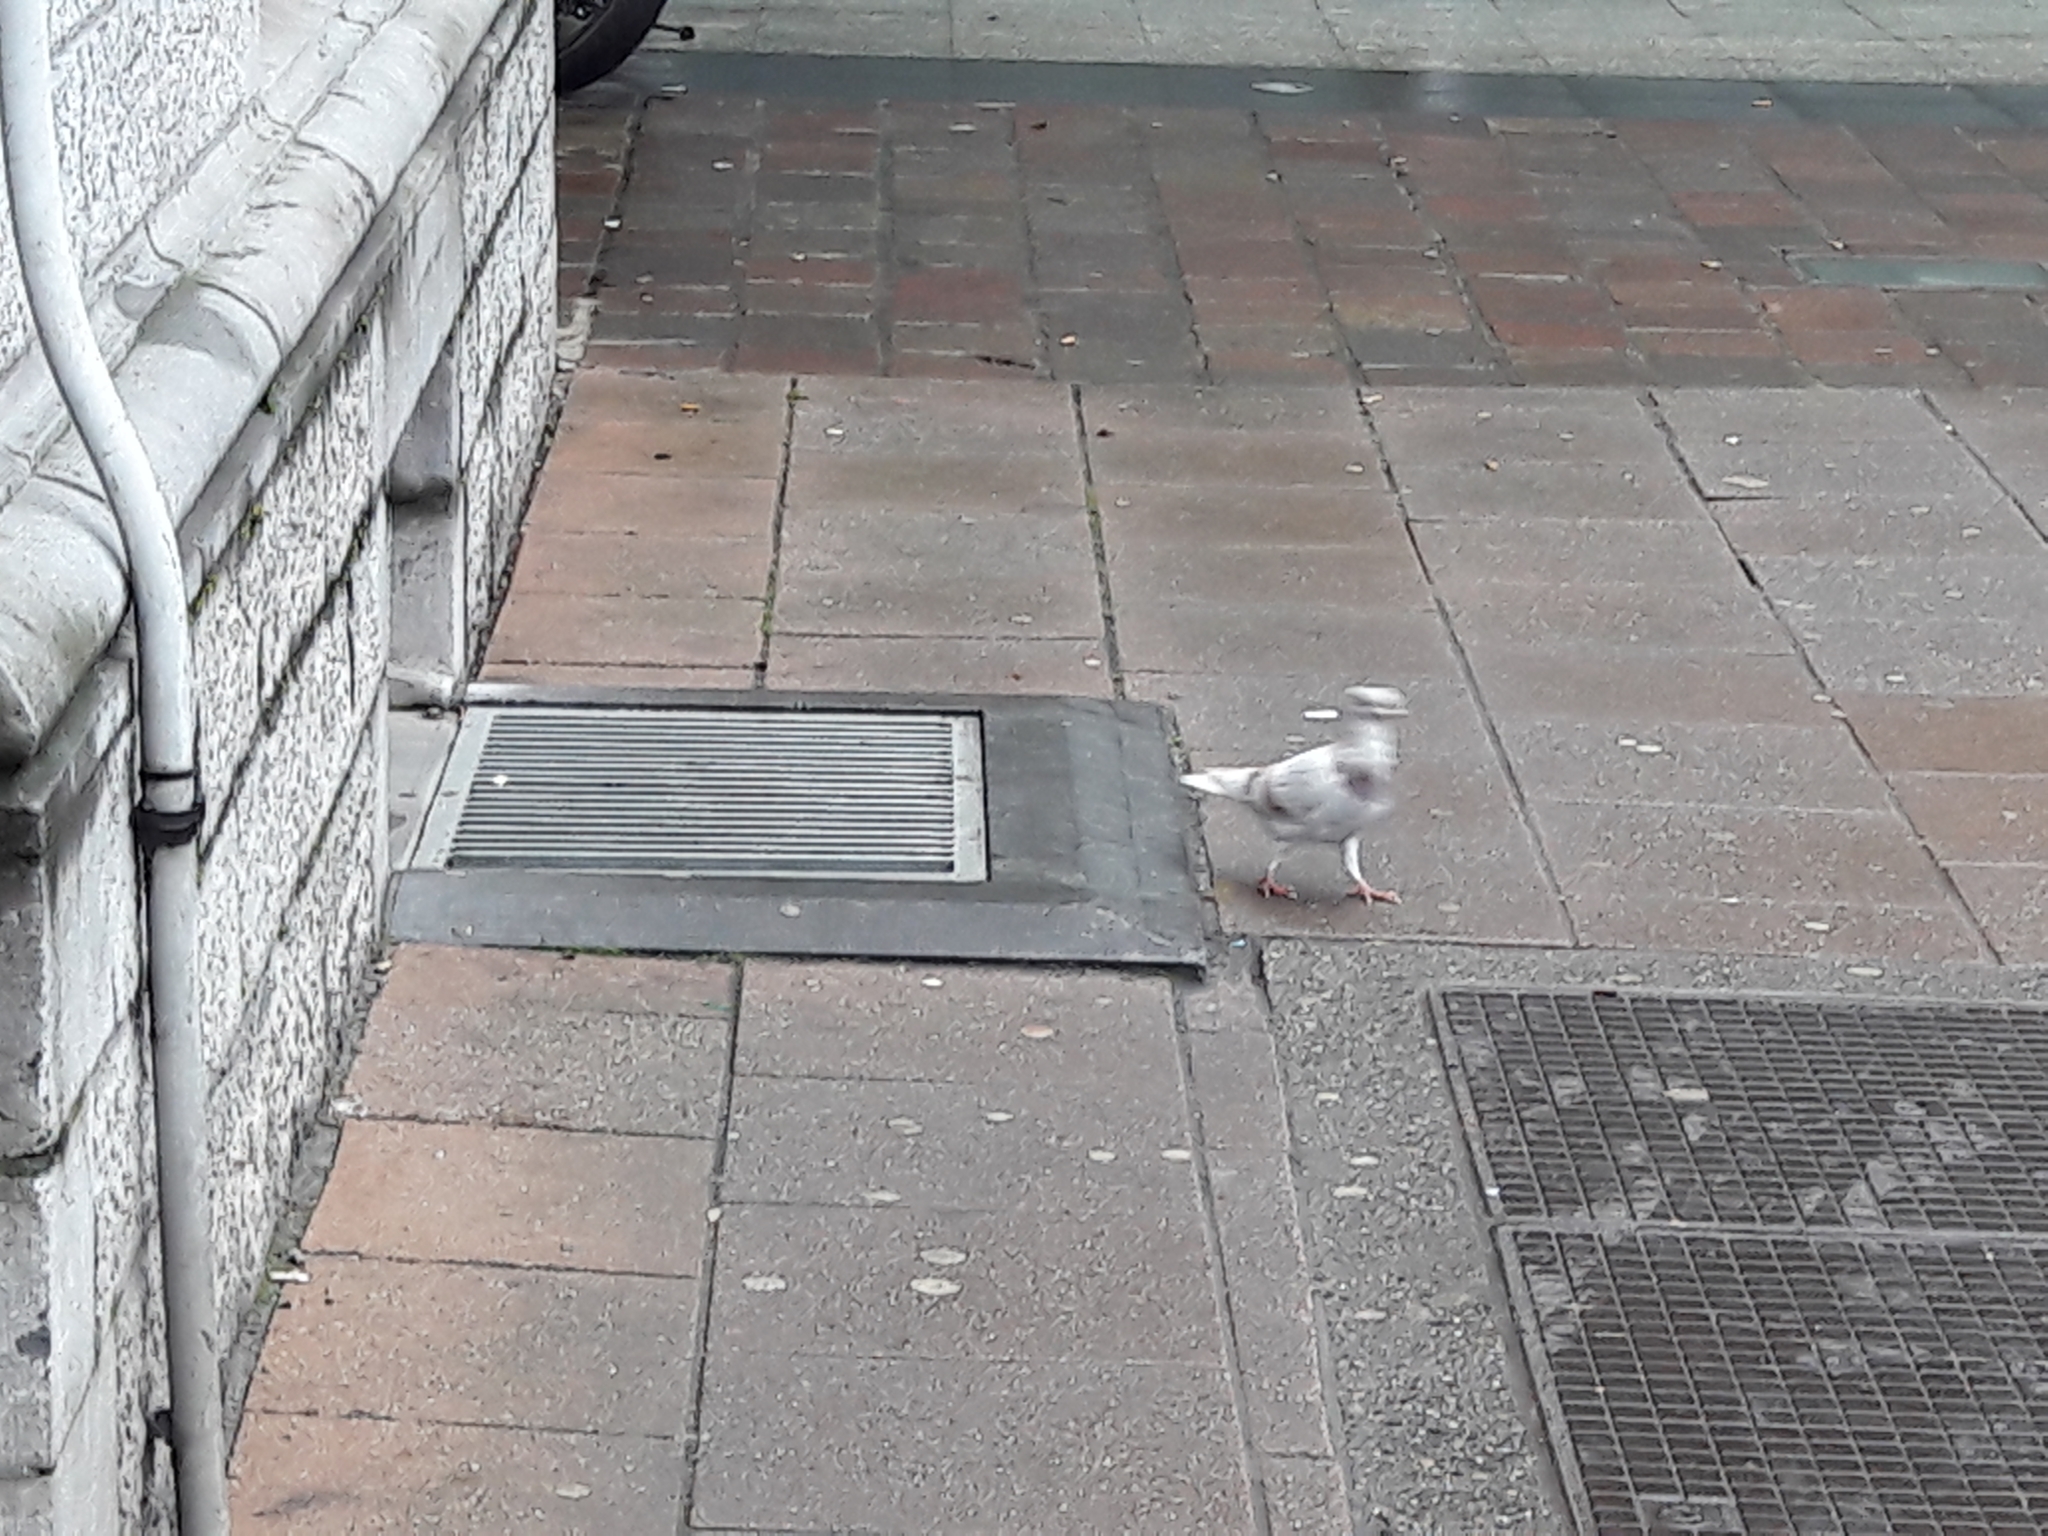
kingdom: Animalia
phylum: Chordata
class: Aves
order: Columbiformes
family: Columbidae
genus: Columba
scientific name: Columba livia
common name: Rock pigeon
